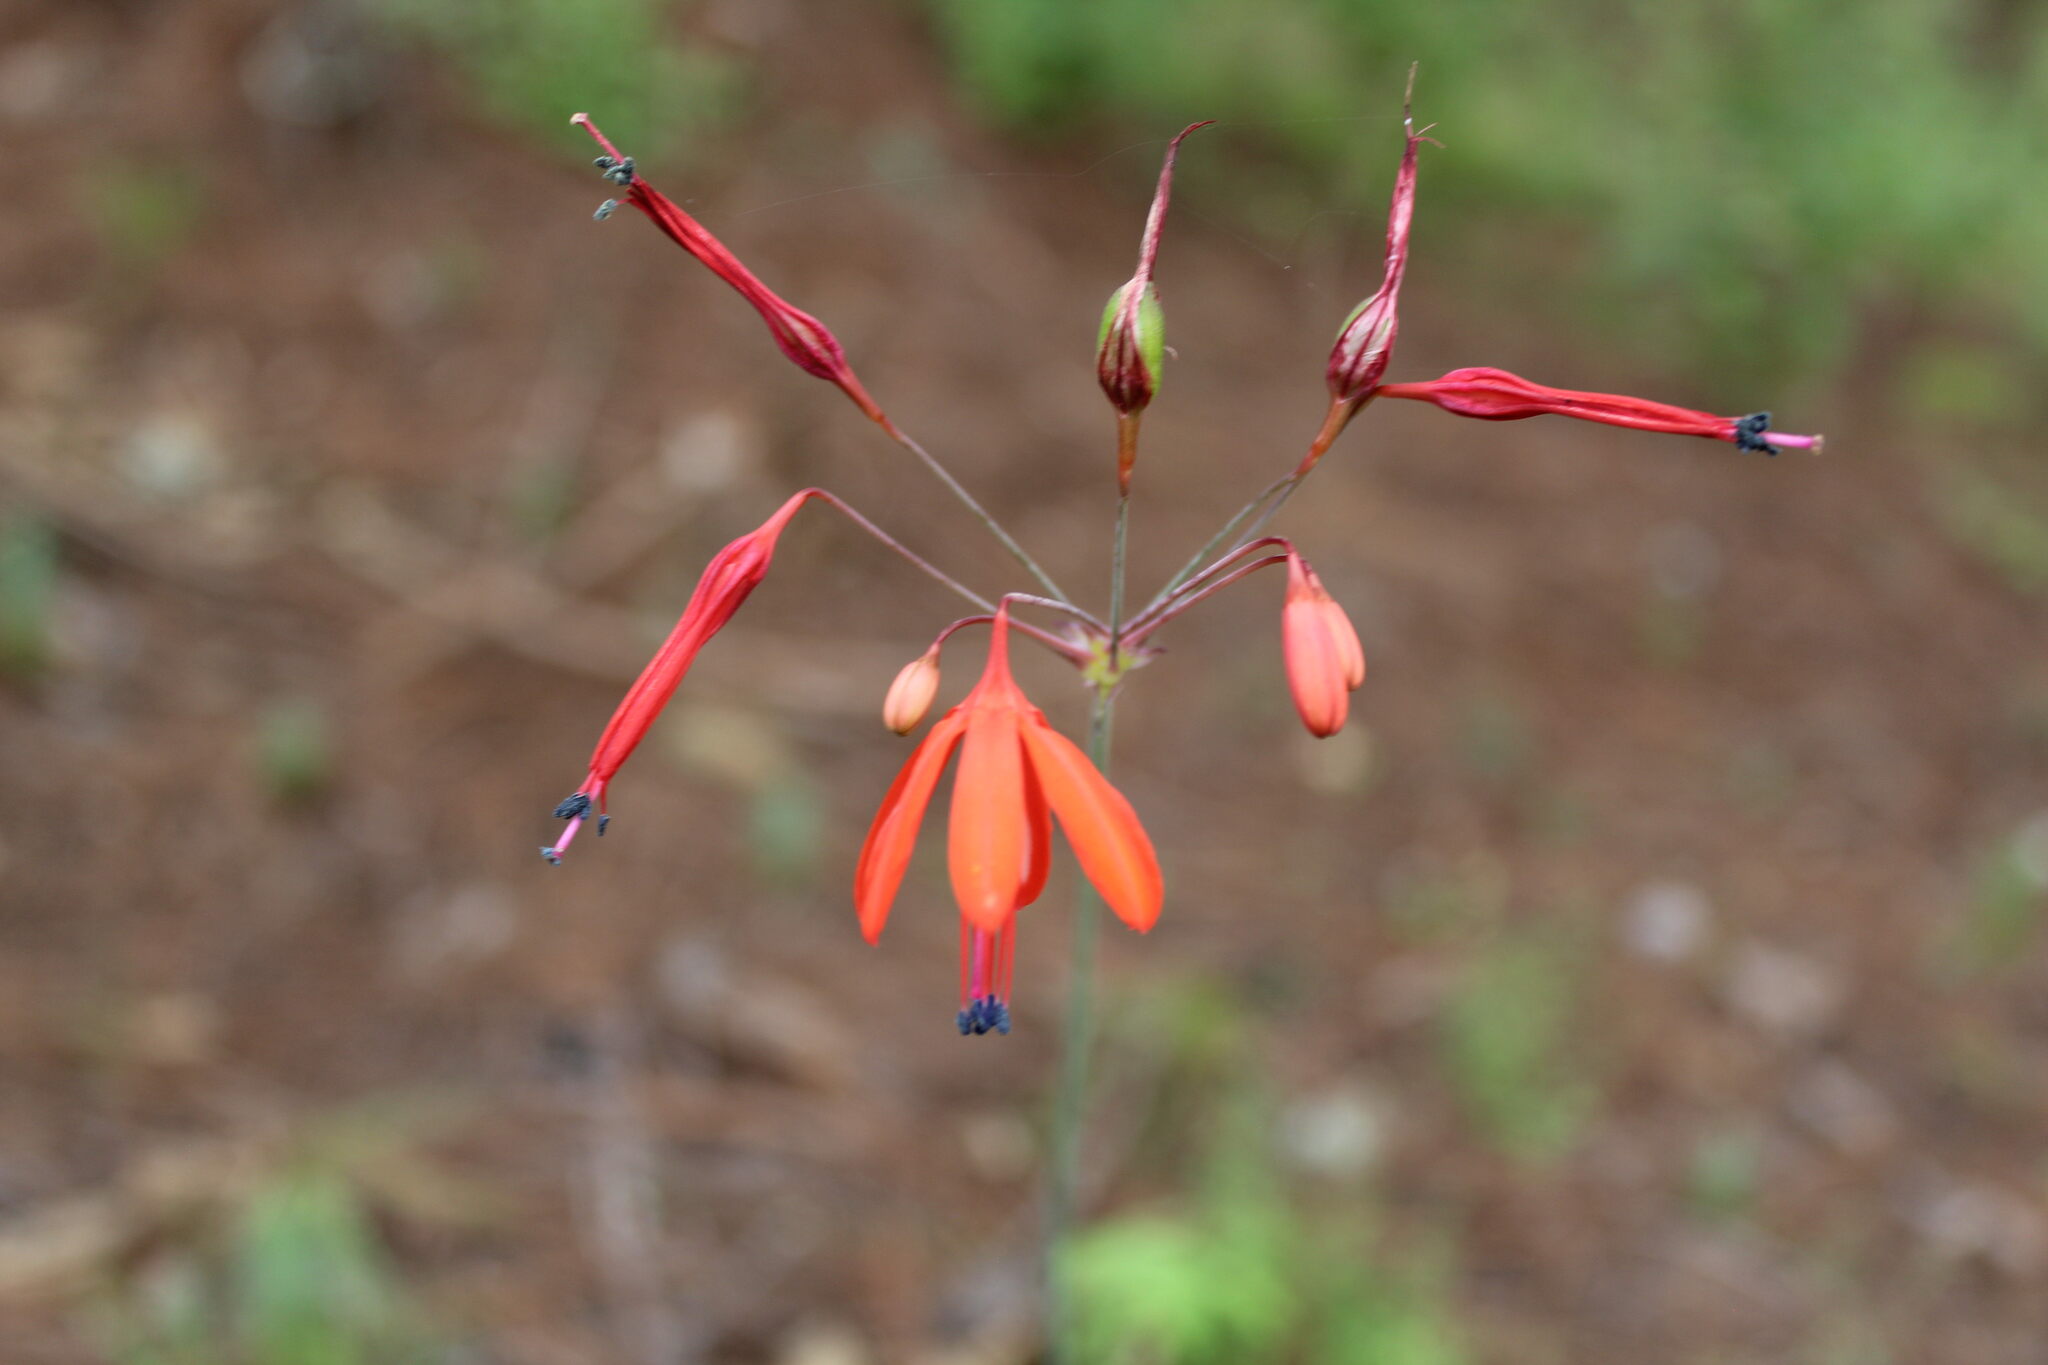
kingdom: Plantae
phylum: Tracheophyta
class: Liliopsida
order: Asparagales
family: Asparagaceae
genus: Bessera
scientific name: Bessera elegans
